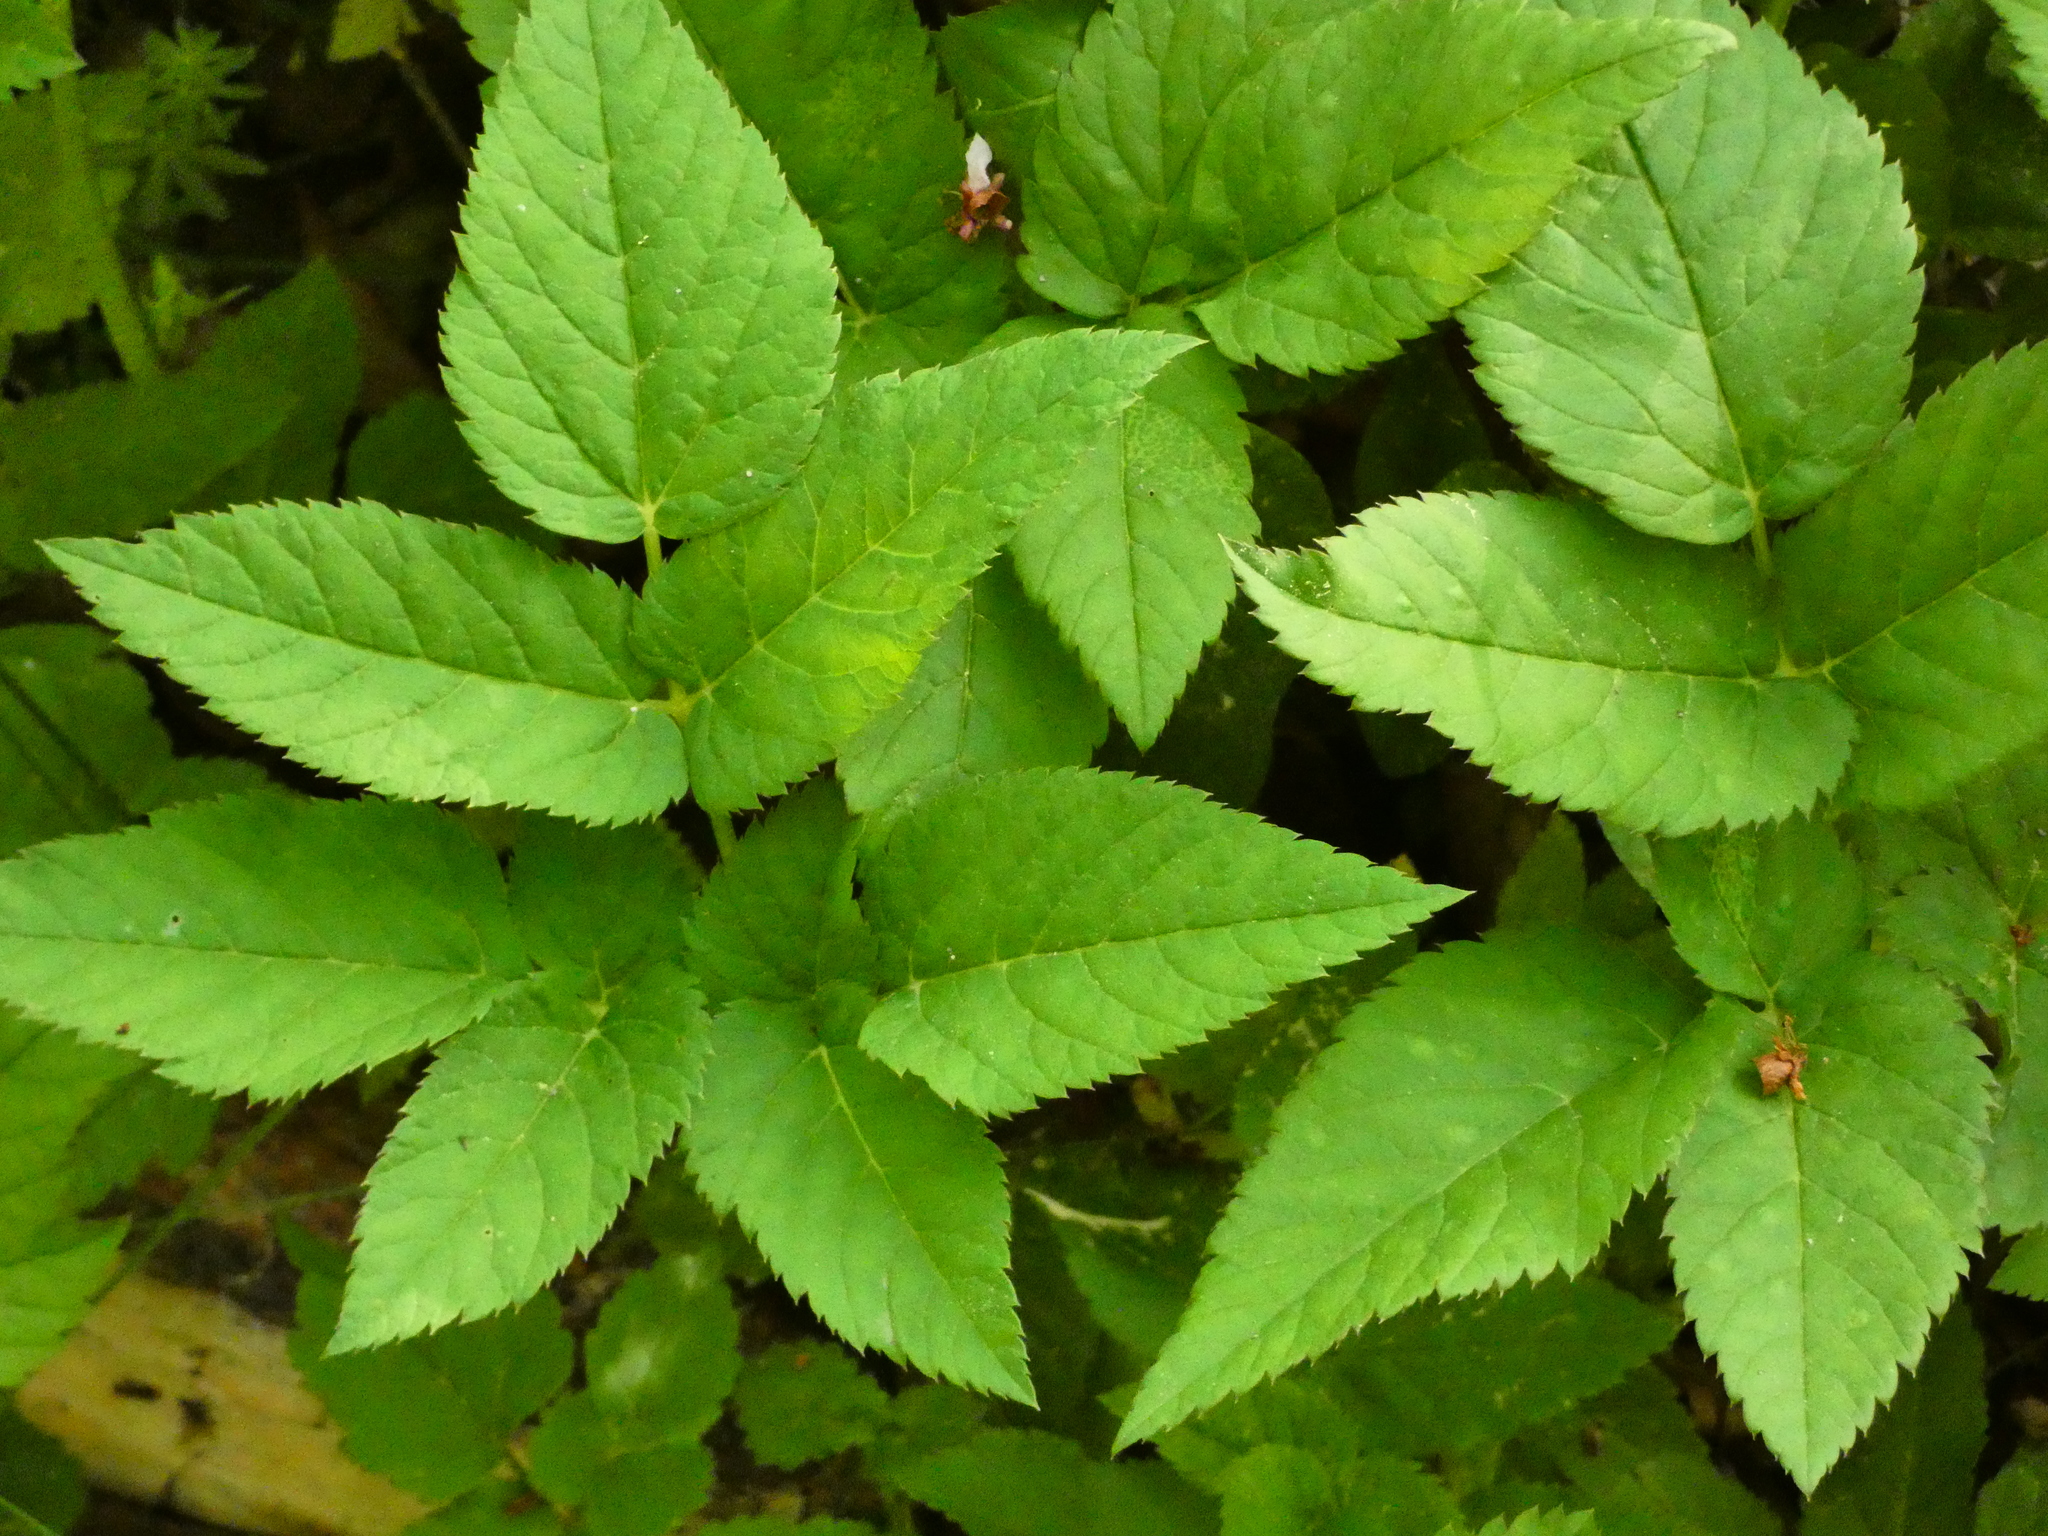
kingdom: Plantae
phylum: Tracheophyta
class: Magnoliopsida
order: Apiales
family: Apiaceae
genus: Aegopodium
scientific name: Aegopodium podagraria
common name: Ground-elder
